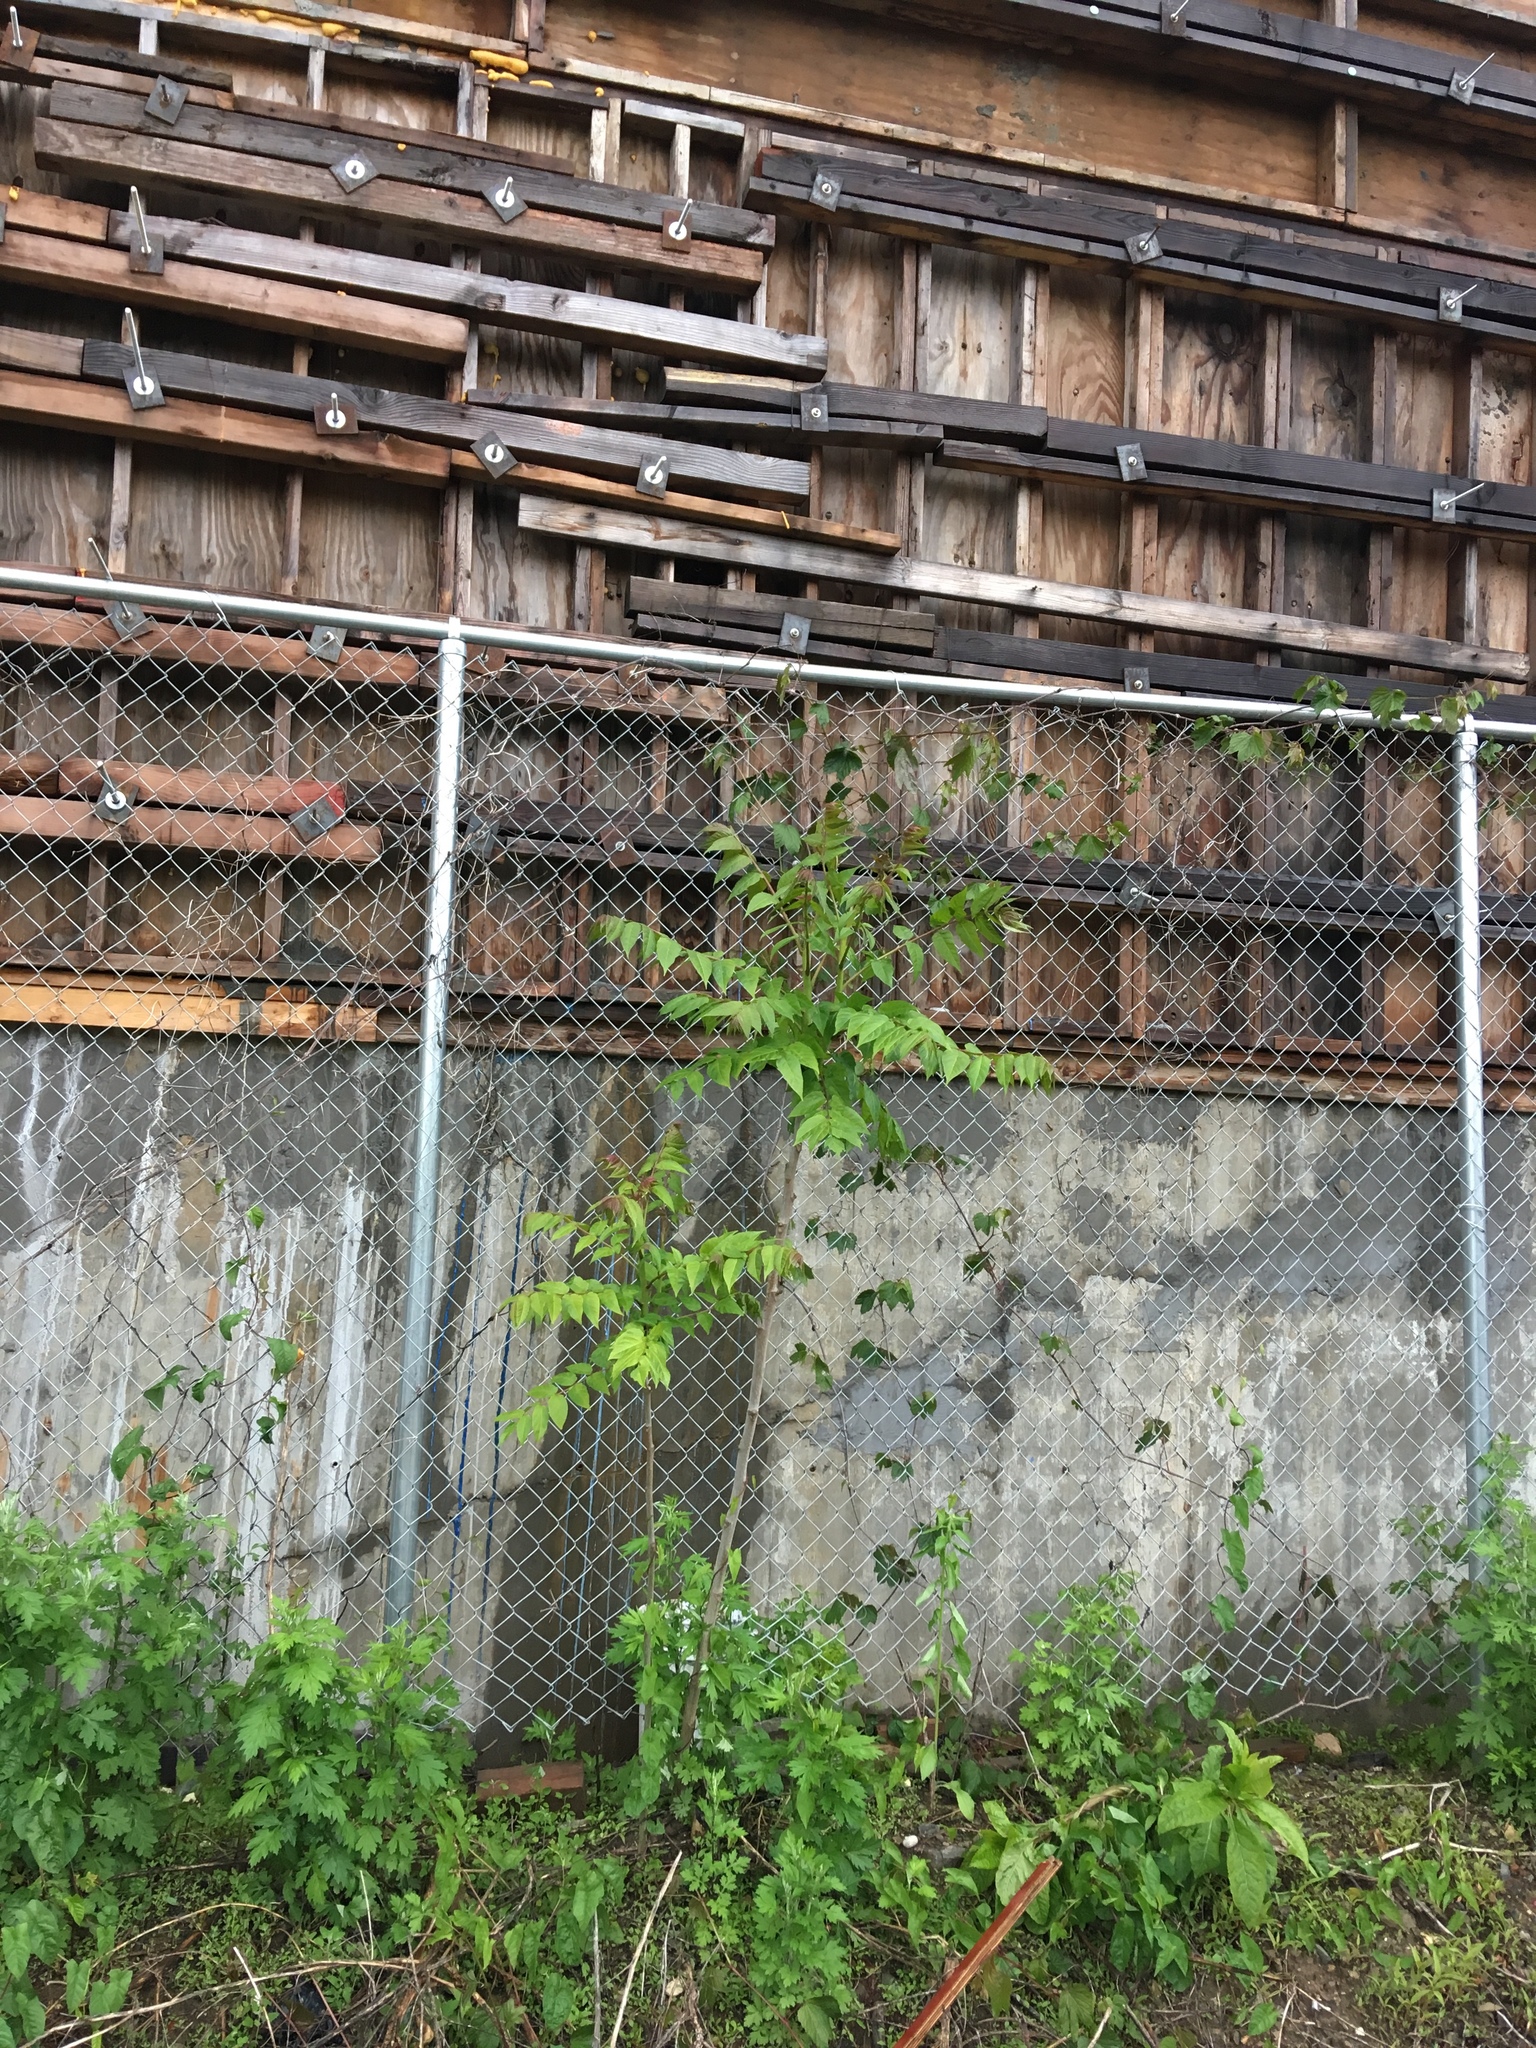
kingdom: Plantae
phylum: Tracheophyta
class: Magnoliopsida
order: Sapindales
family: Simaroubaceae
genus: Ailanthus
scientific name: Ailanthus altissima
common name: Tree-of-heaven
